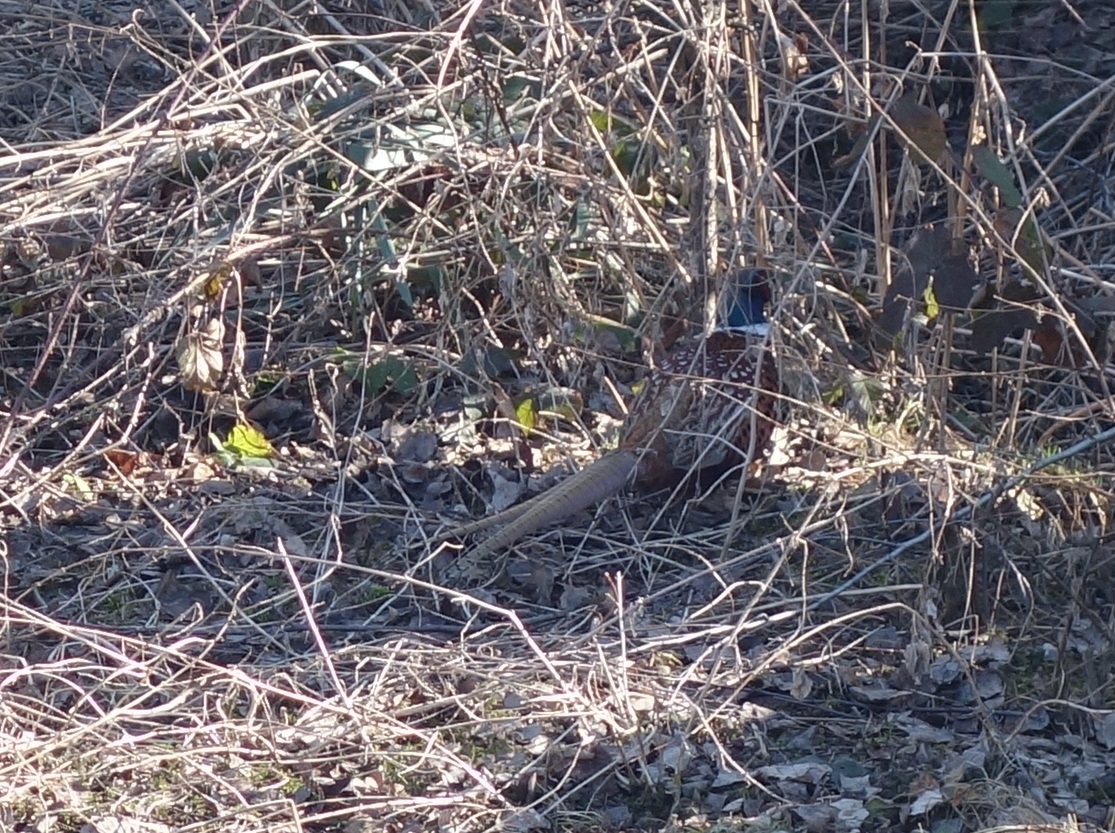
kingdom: Animalia
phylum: Chordata
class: Aves
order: Galliformes
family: Phasianidae
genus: Phasianus
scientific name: Phasianus colchicus
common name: Common pheasant
